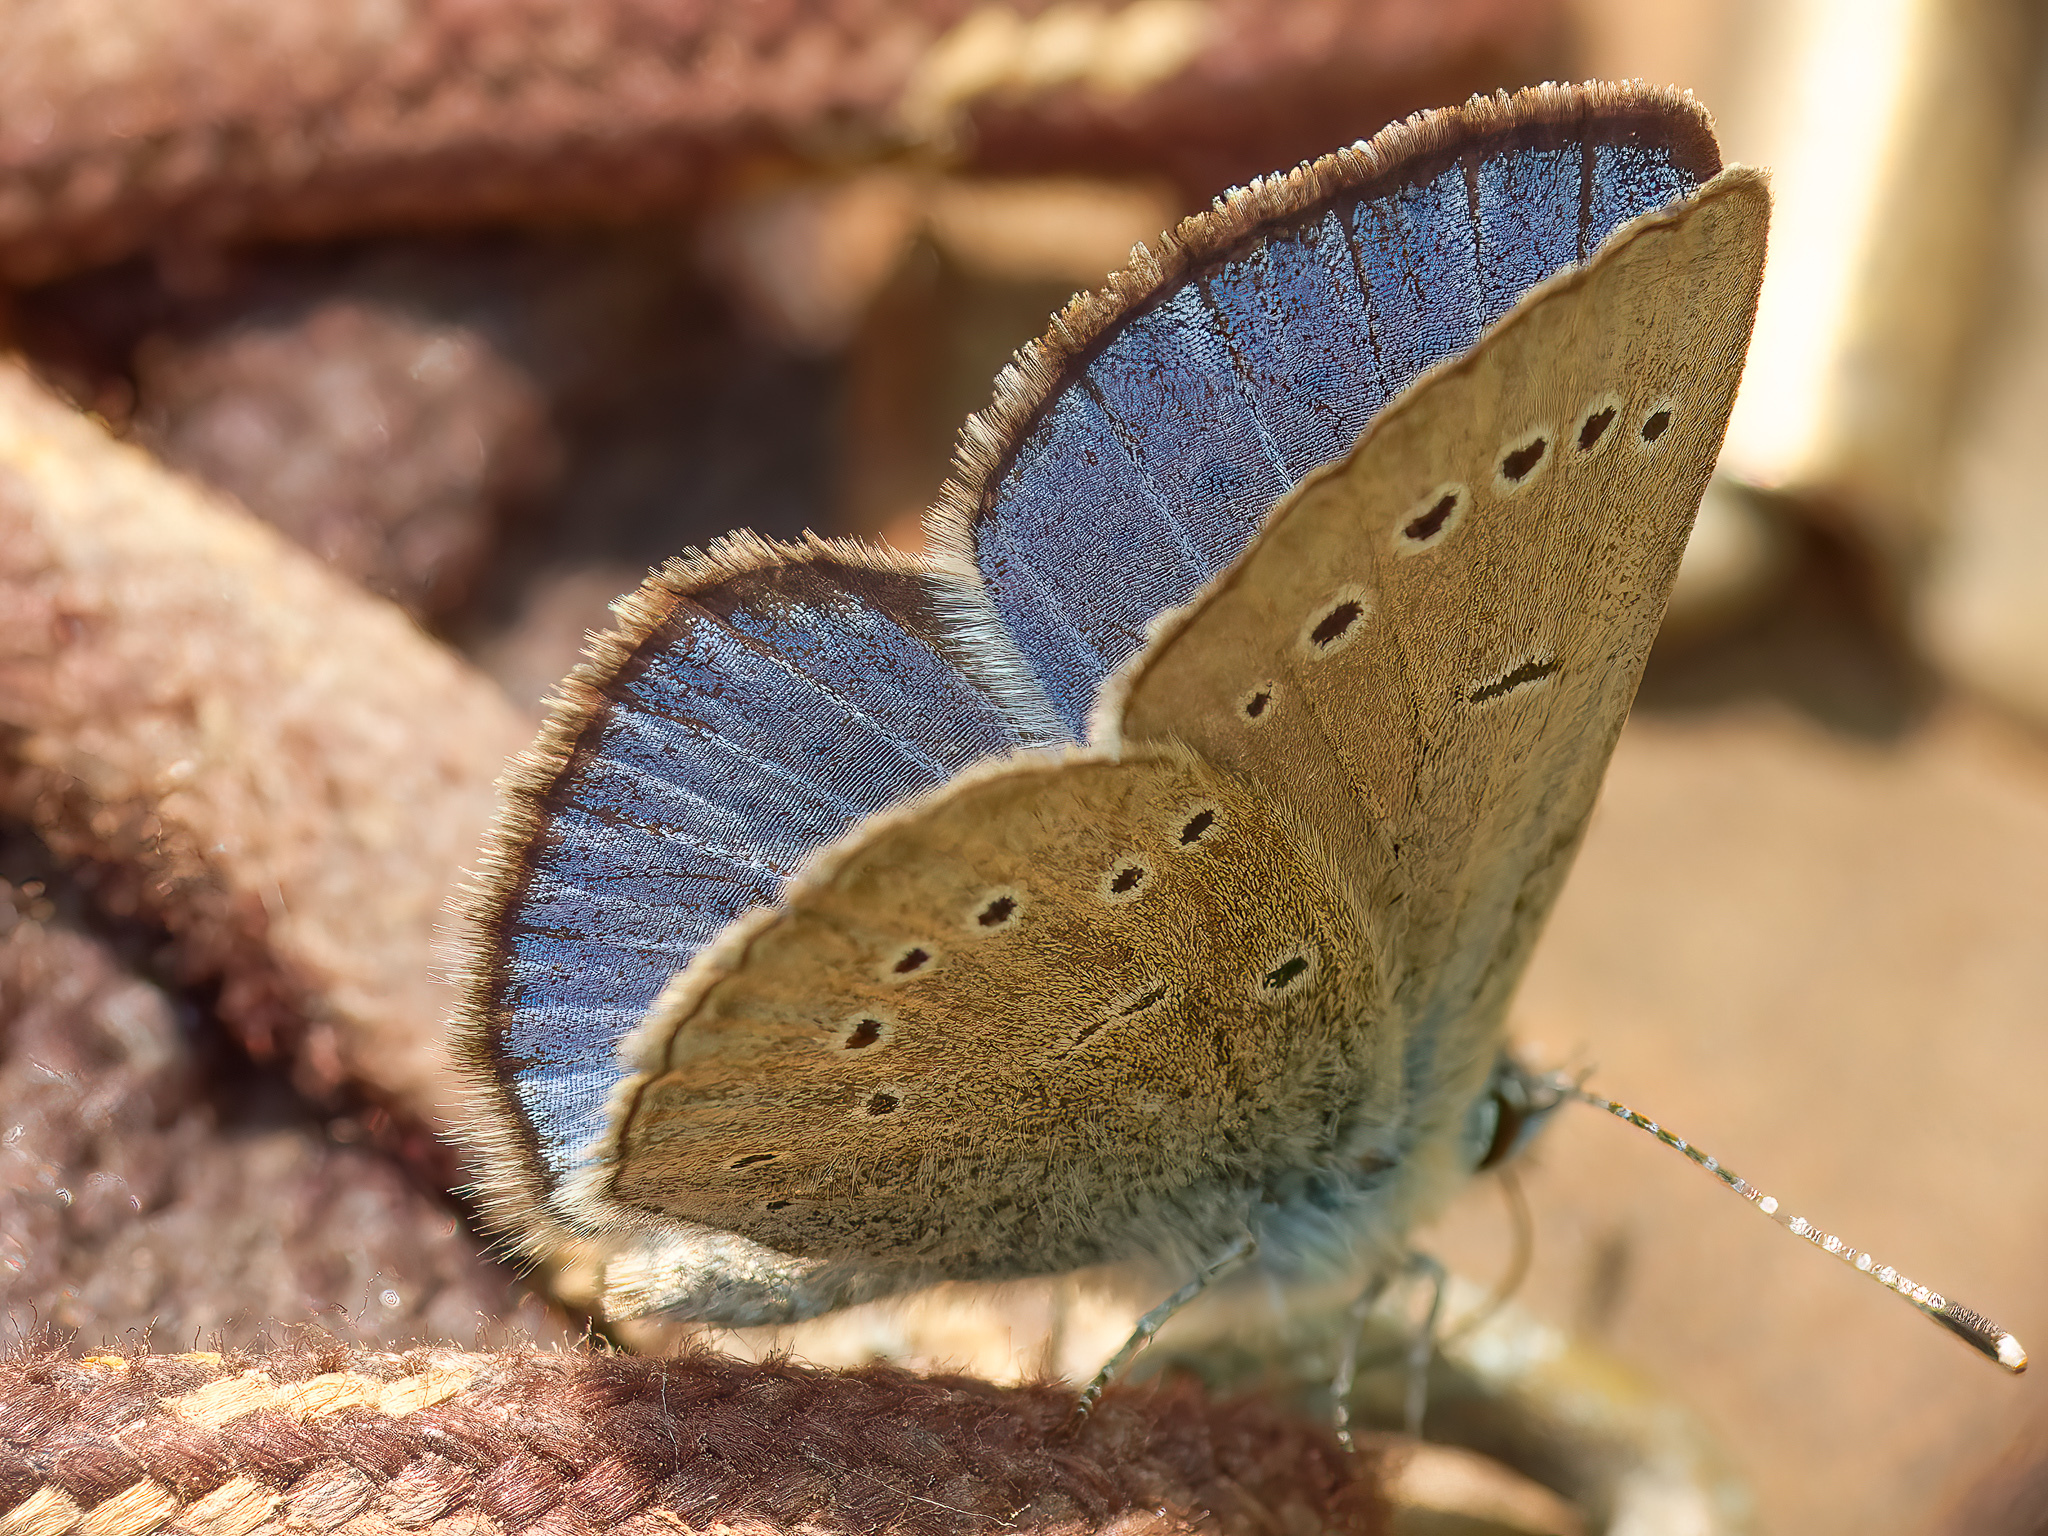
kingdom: Animalia
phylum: Arthropoda
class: Insecta
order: Lepidoptera
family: Lycaenidae
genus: Glaucopsyche
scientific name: Glaucopsyche lygdamus
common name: Silvery blue
